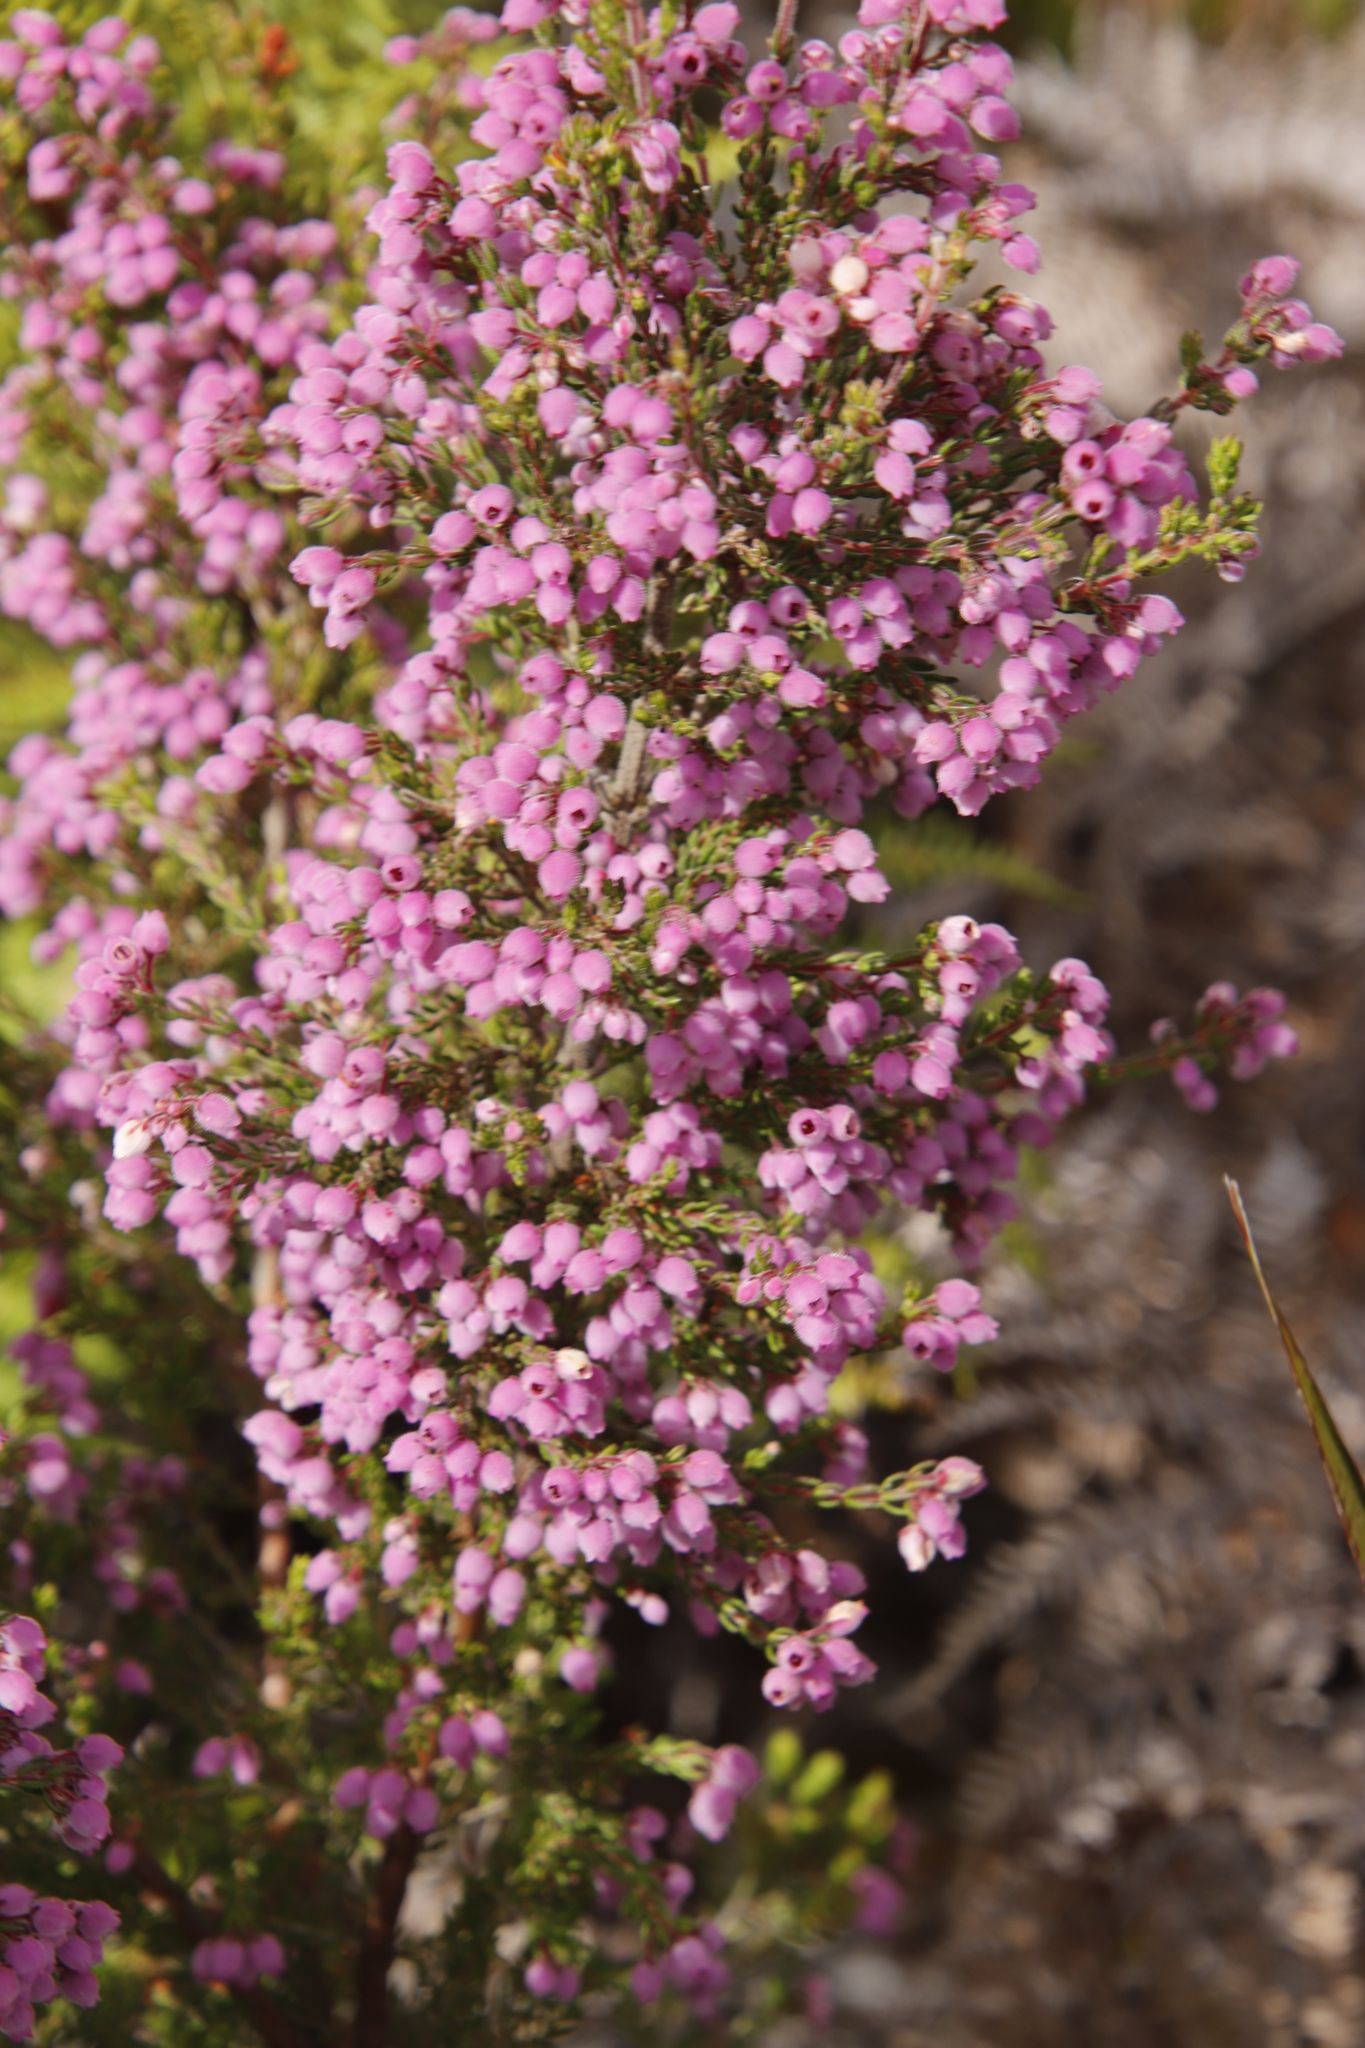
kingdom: Plantae
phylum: Tracheophyta
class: Magnoliopsida
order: Ericales
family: Ericaceae
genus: Erica
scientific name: Erica hirtiflora
